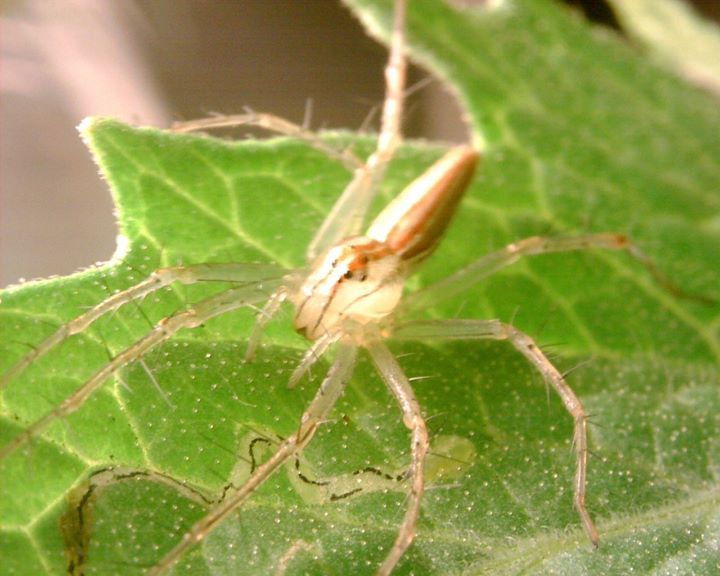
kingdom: Animalia
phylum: Arthropoda
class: Arachnida
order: Araneae
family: Oxyopidae
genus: Oxyopes
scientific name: Oxyopes macilentus
